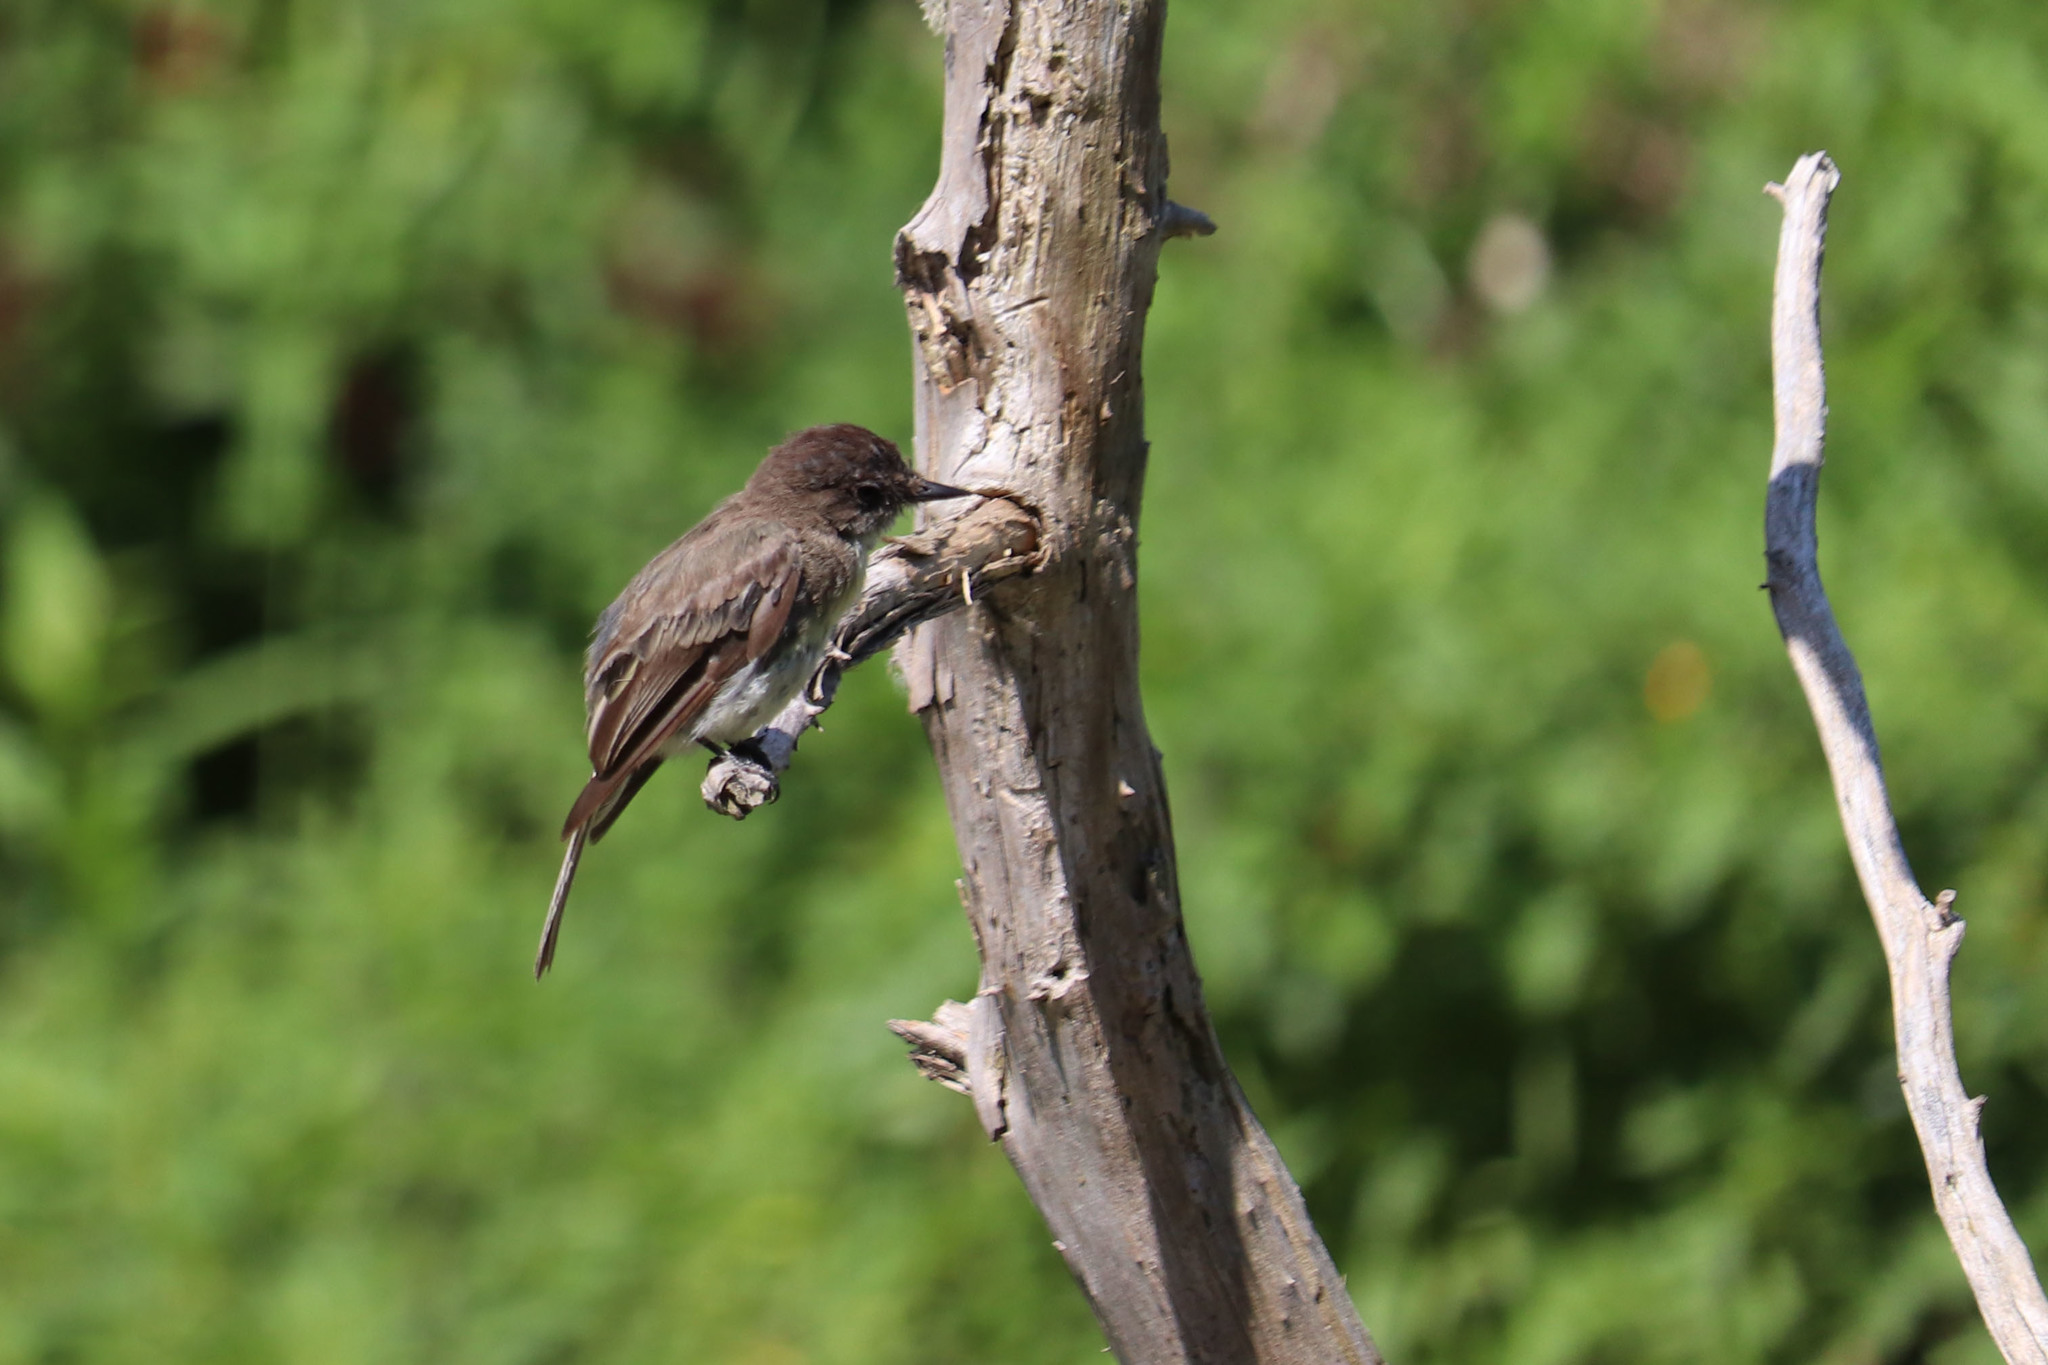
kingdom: Animalia
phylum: Chordata
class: Aves
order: Passeriformes
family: Tyrannidae
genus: Sayornis
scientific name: Sayornis phoebe
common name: Eastern phoebe
